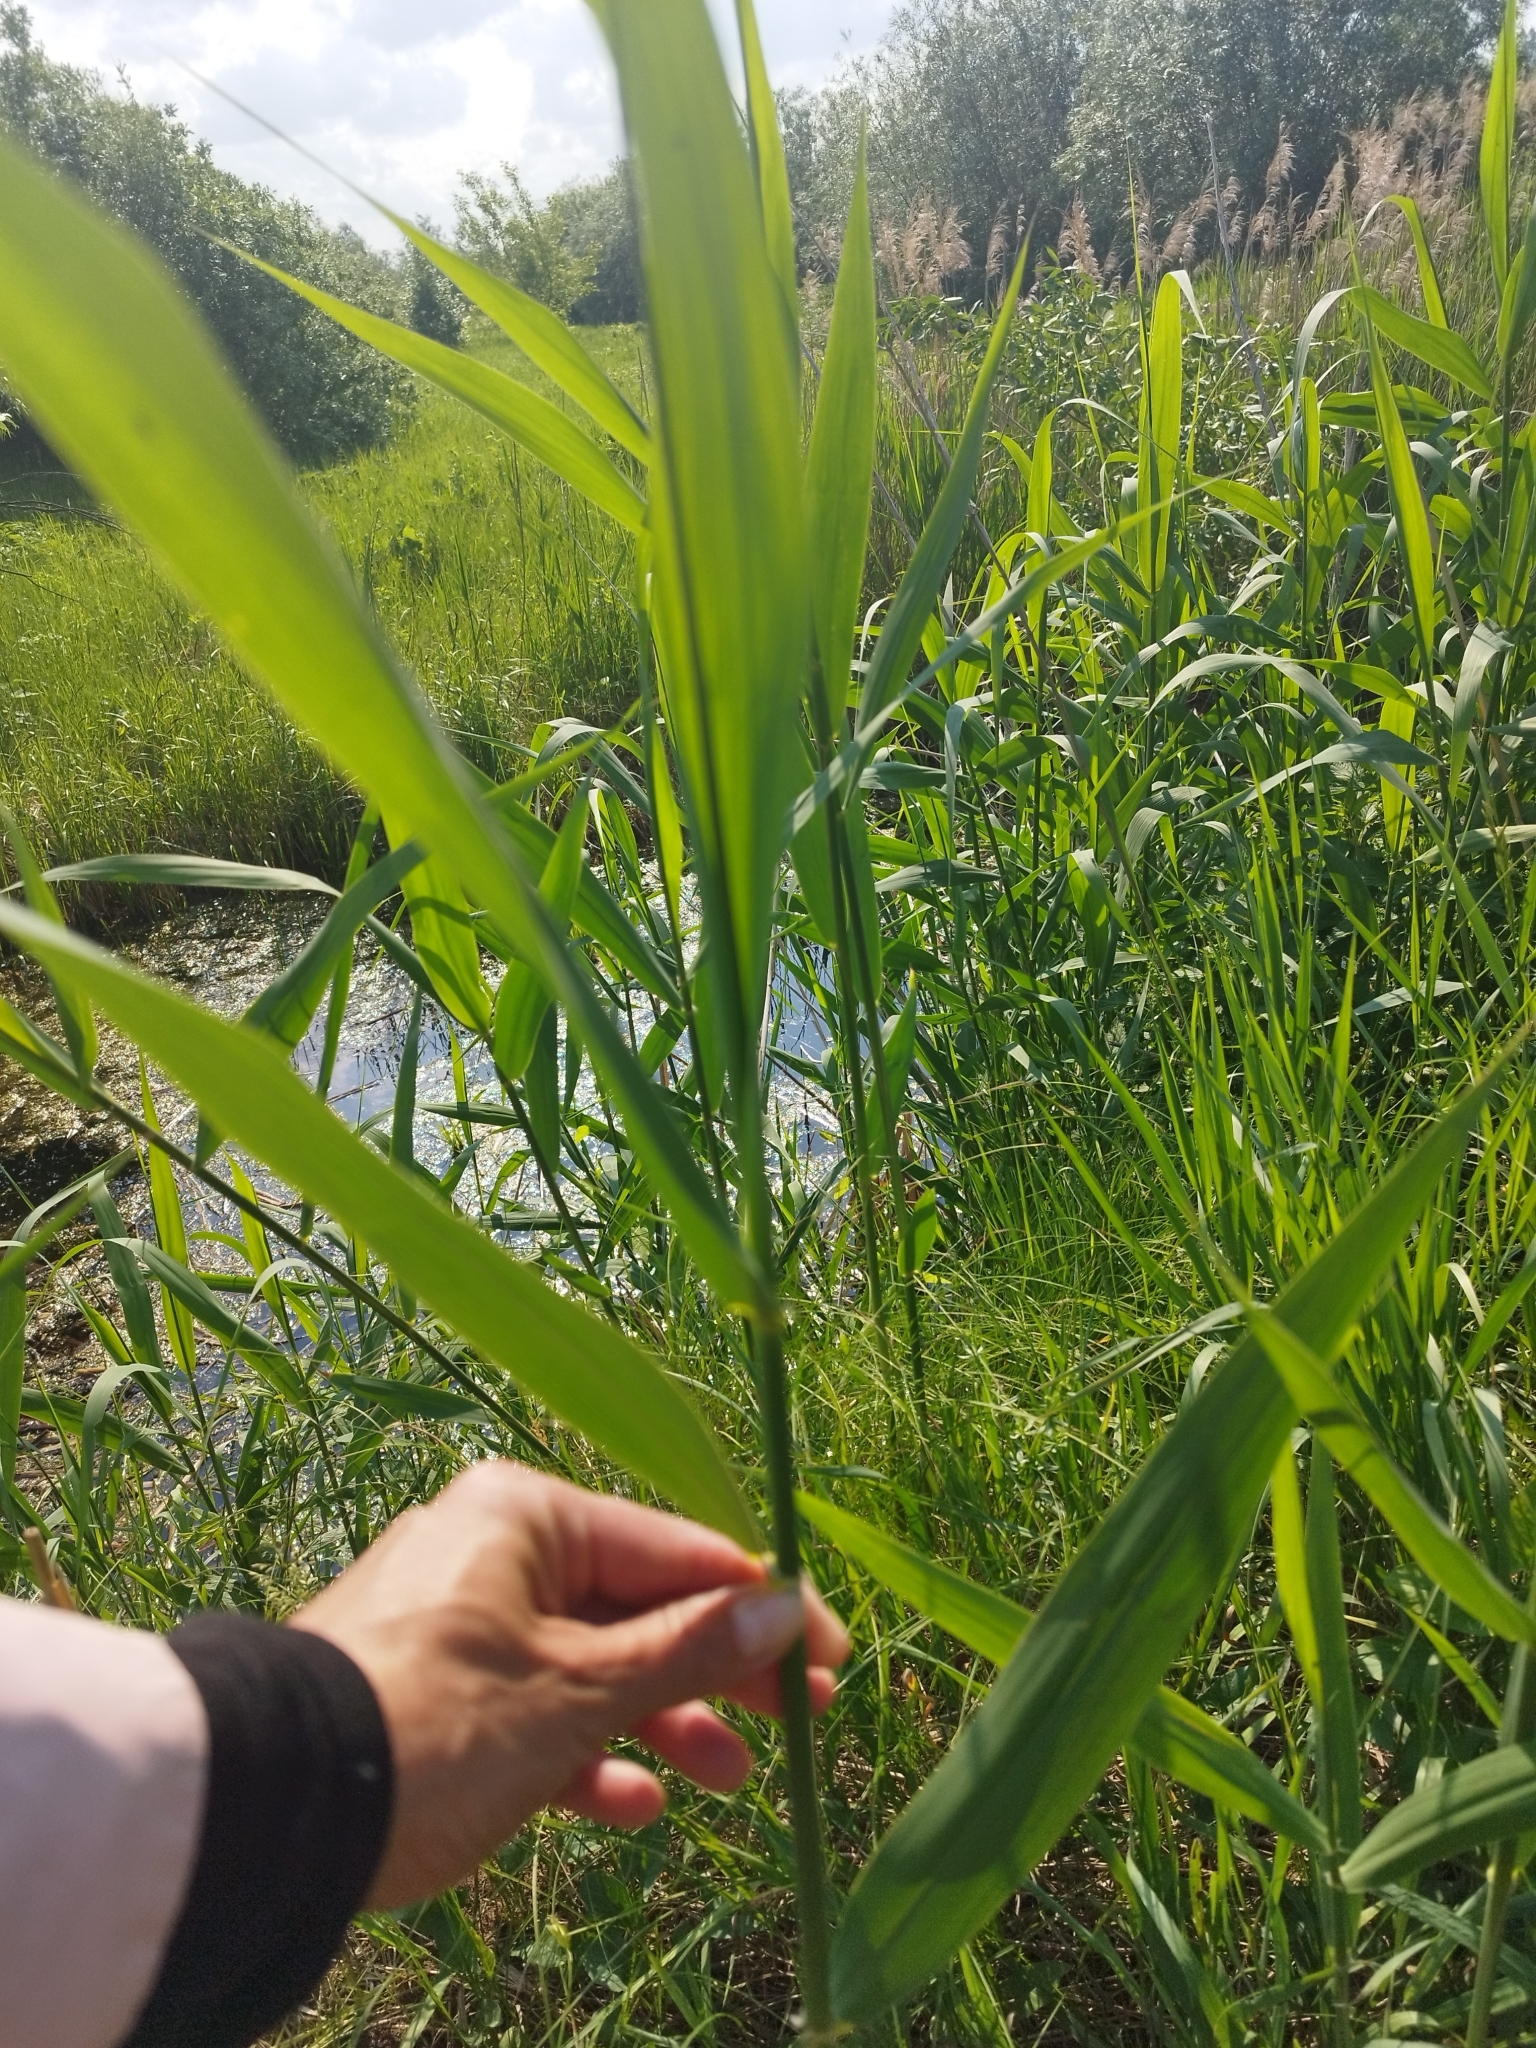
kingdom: Plantae
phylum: Tracheophyta
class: Liliopsida
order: Poales
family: Poaceae
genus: Phragmites
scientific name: Phragmites australis
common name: Common reed
